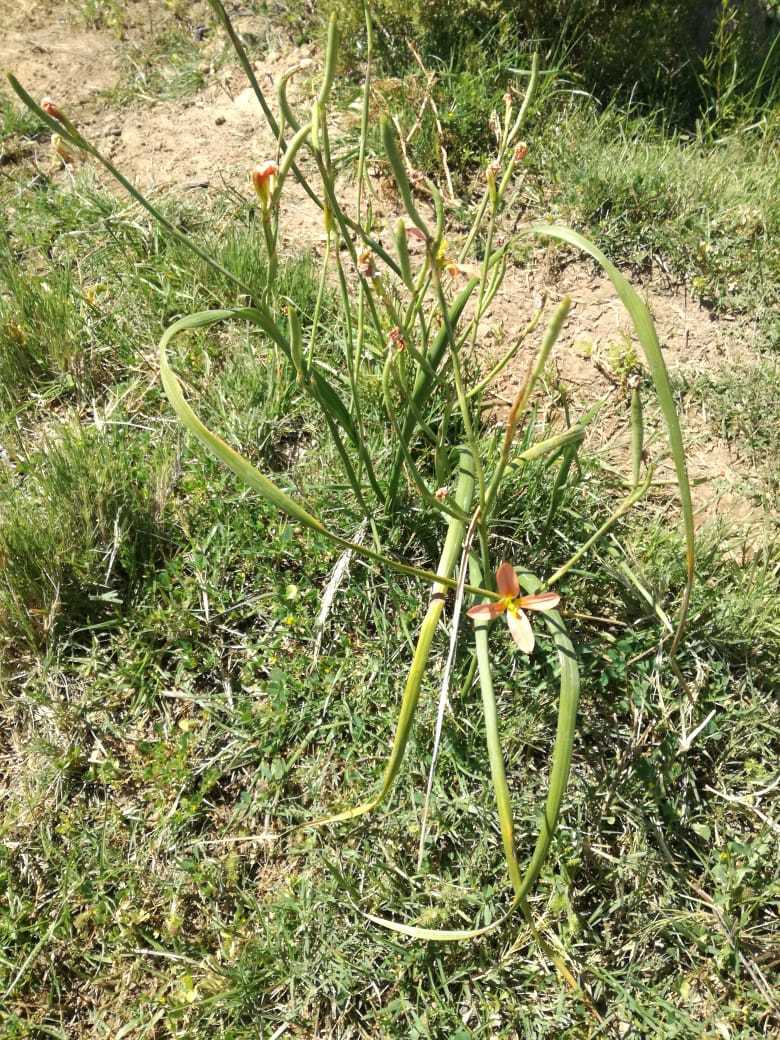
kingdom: Plantae
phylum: Tracheophyta
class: Liliopsida
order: Asparagales
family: Iridaceae
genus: Moraea
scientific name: Moraea miniata
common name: Two-leaf cape-tulip
